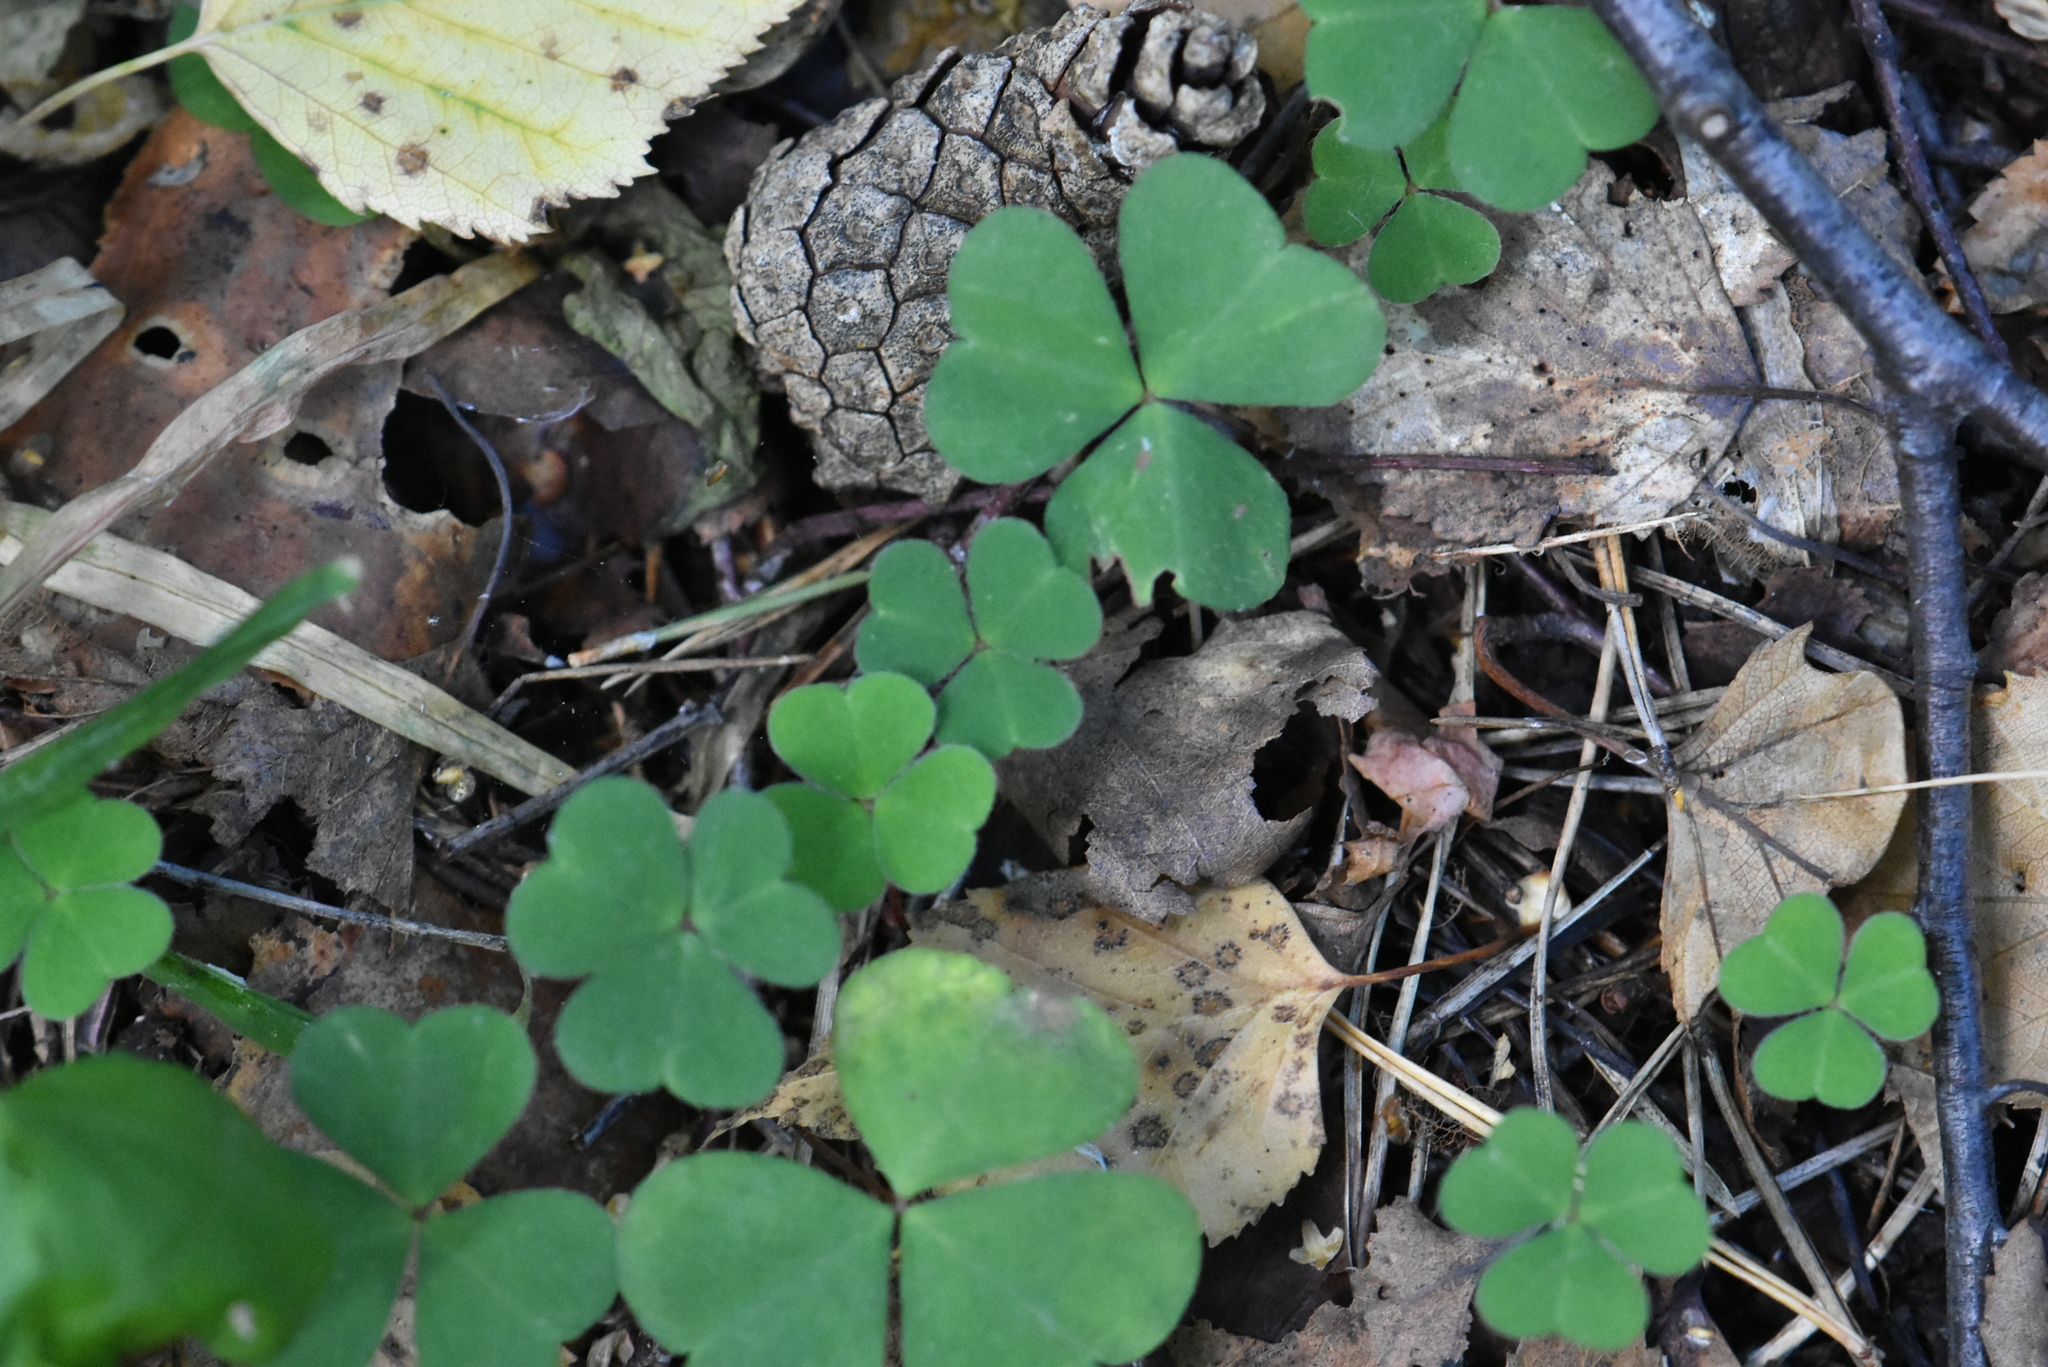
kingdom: Plantae
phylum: Tracheophyta
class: Magnoliopsida
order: Oxalidales
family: Oxalidaceae
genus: Oxalis
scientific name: Oxalis acetosella
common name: Wood-sorrel
